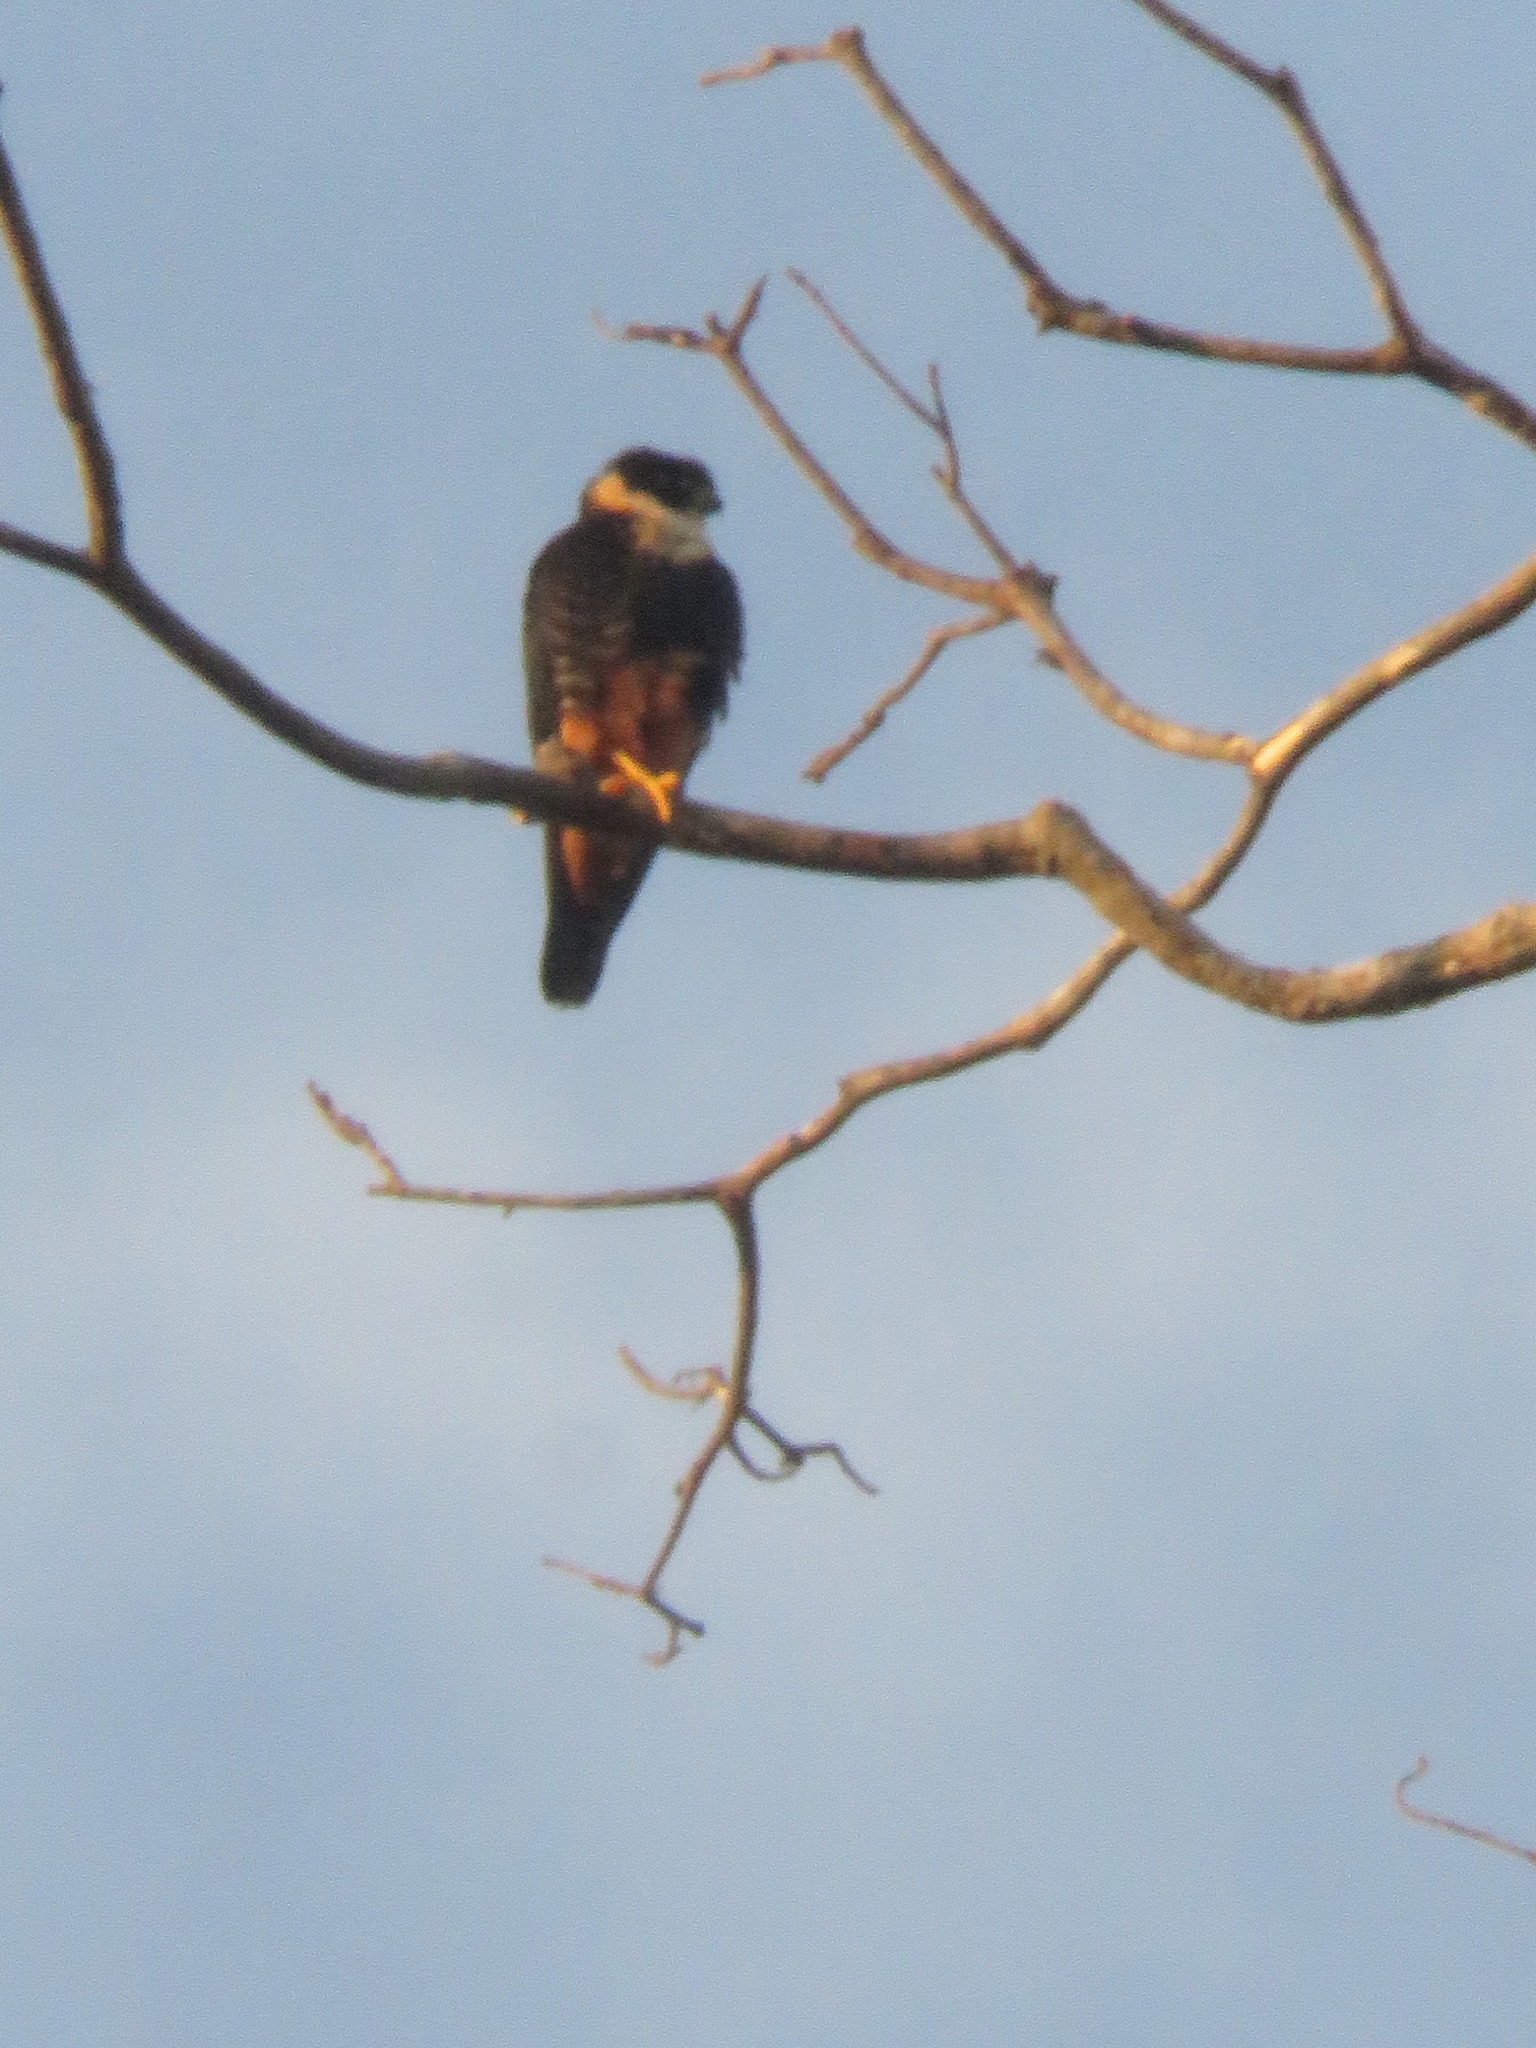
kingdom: Animalia
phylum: Chordata
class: Aves
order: Falconiformes
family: Falconidae
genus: Falco
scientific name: Falco rufigularis
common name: Bat falcon
